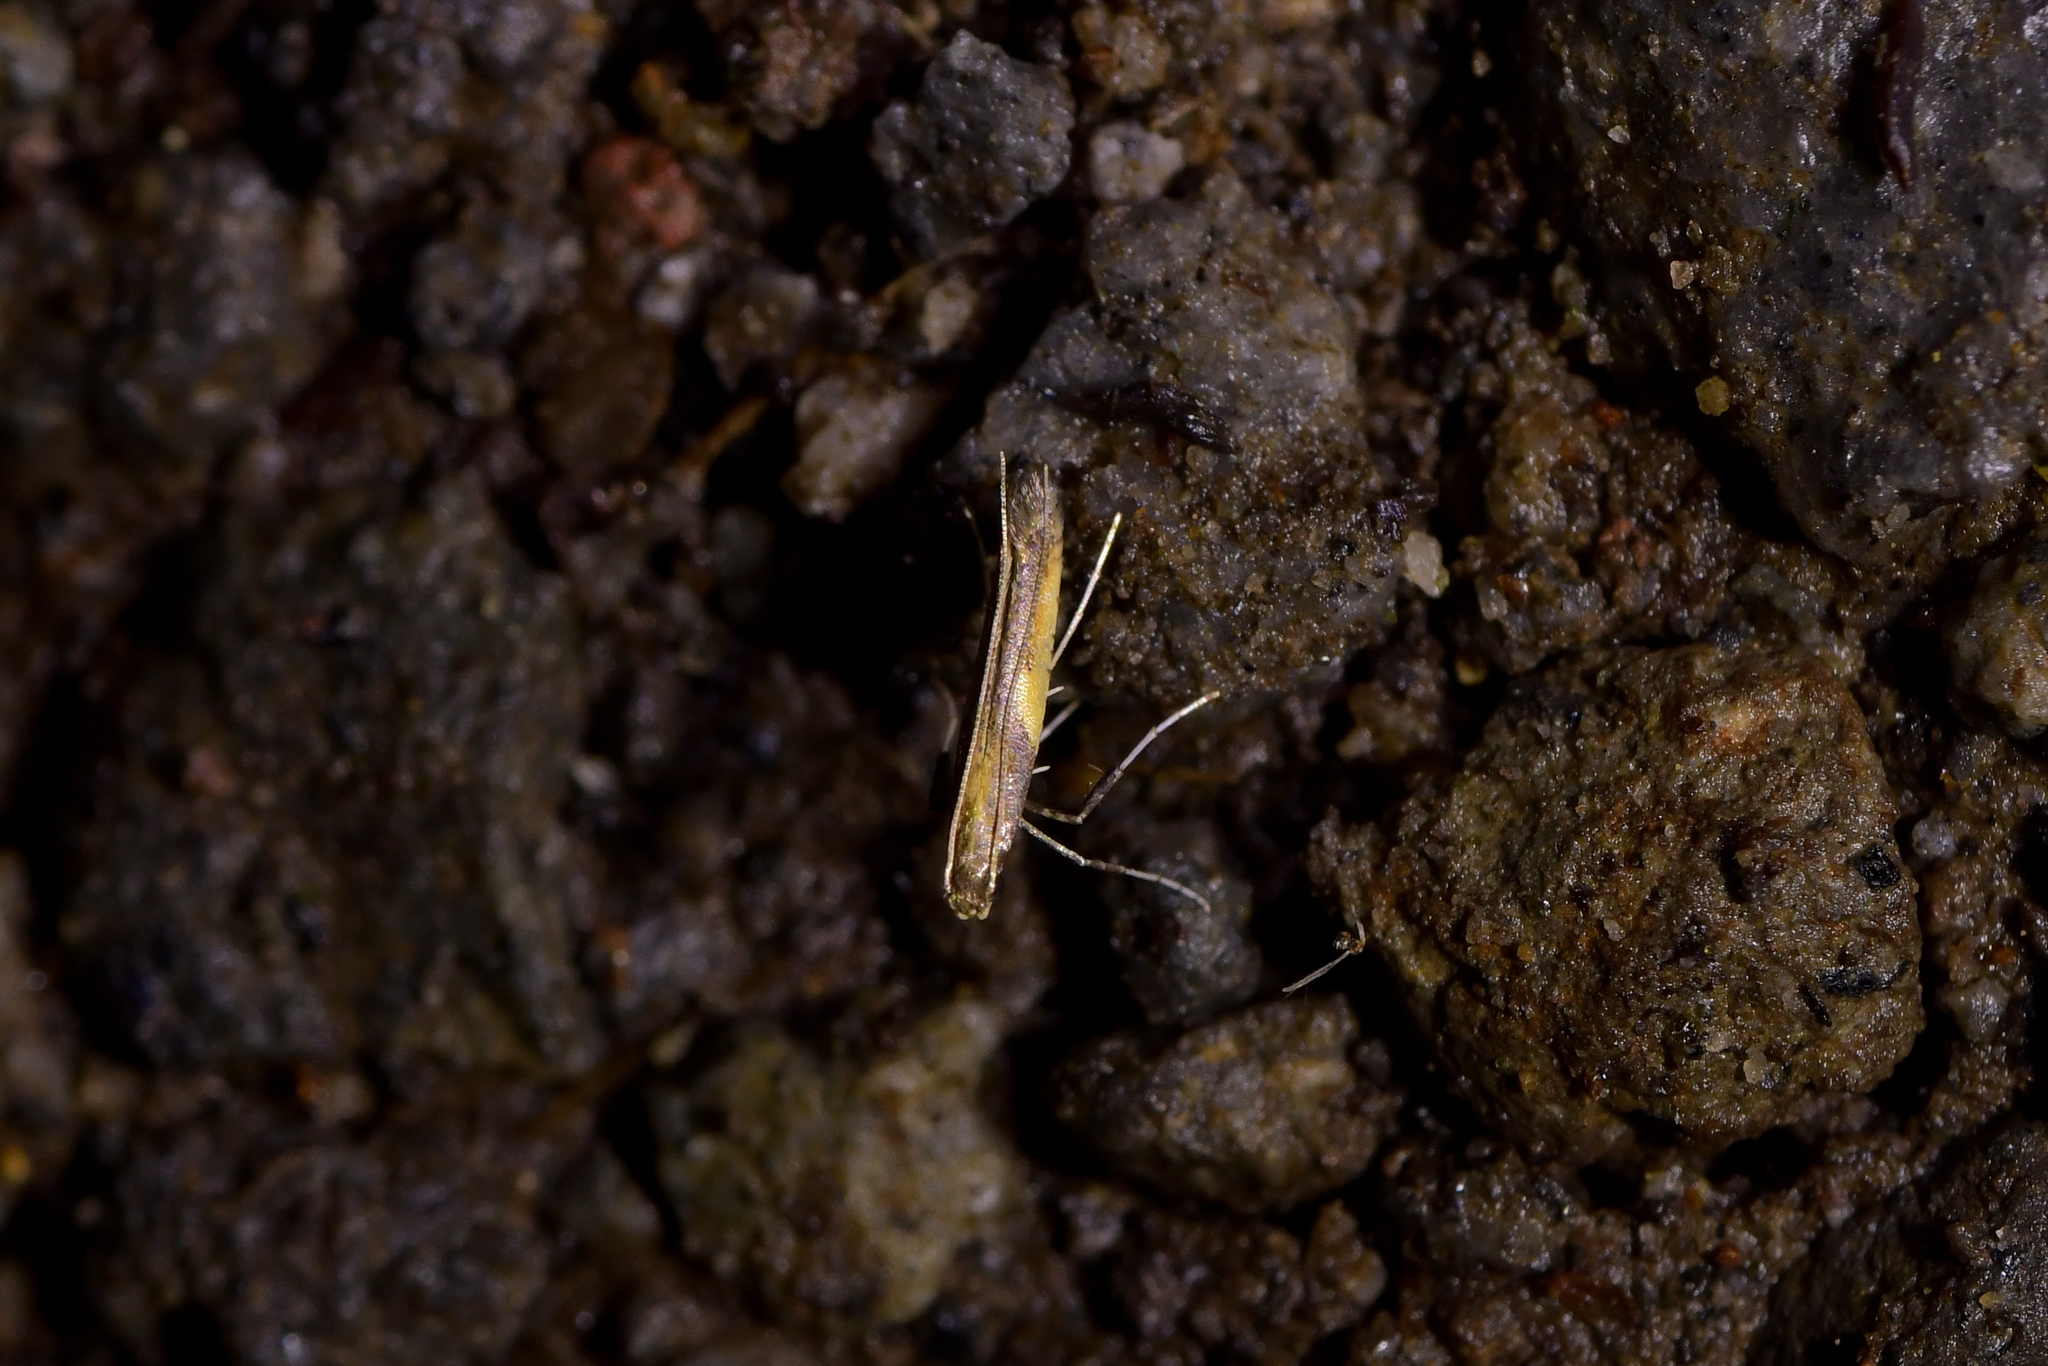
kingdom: Animalia
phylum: Arthropoda
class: Insecta
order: Lepidoptera
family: Gracillariidae
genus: Caloptilia
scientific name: Caloptilia azaleella
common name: Azalea leafminer
